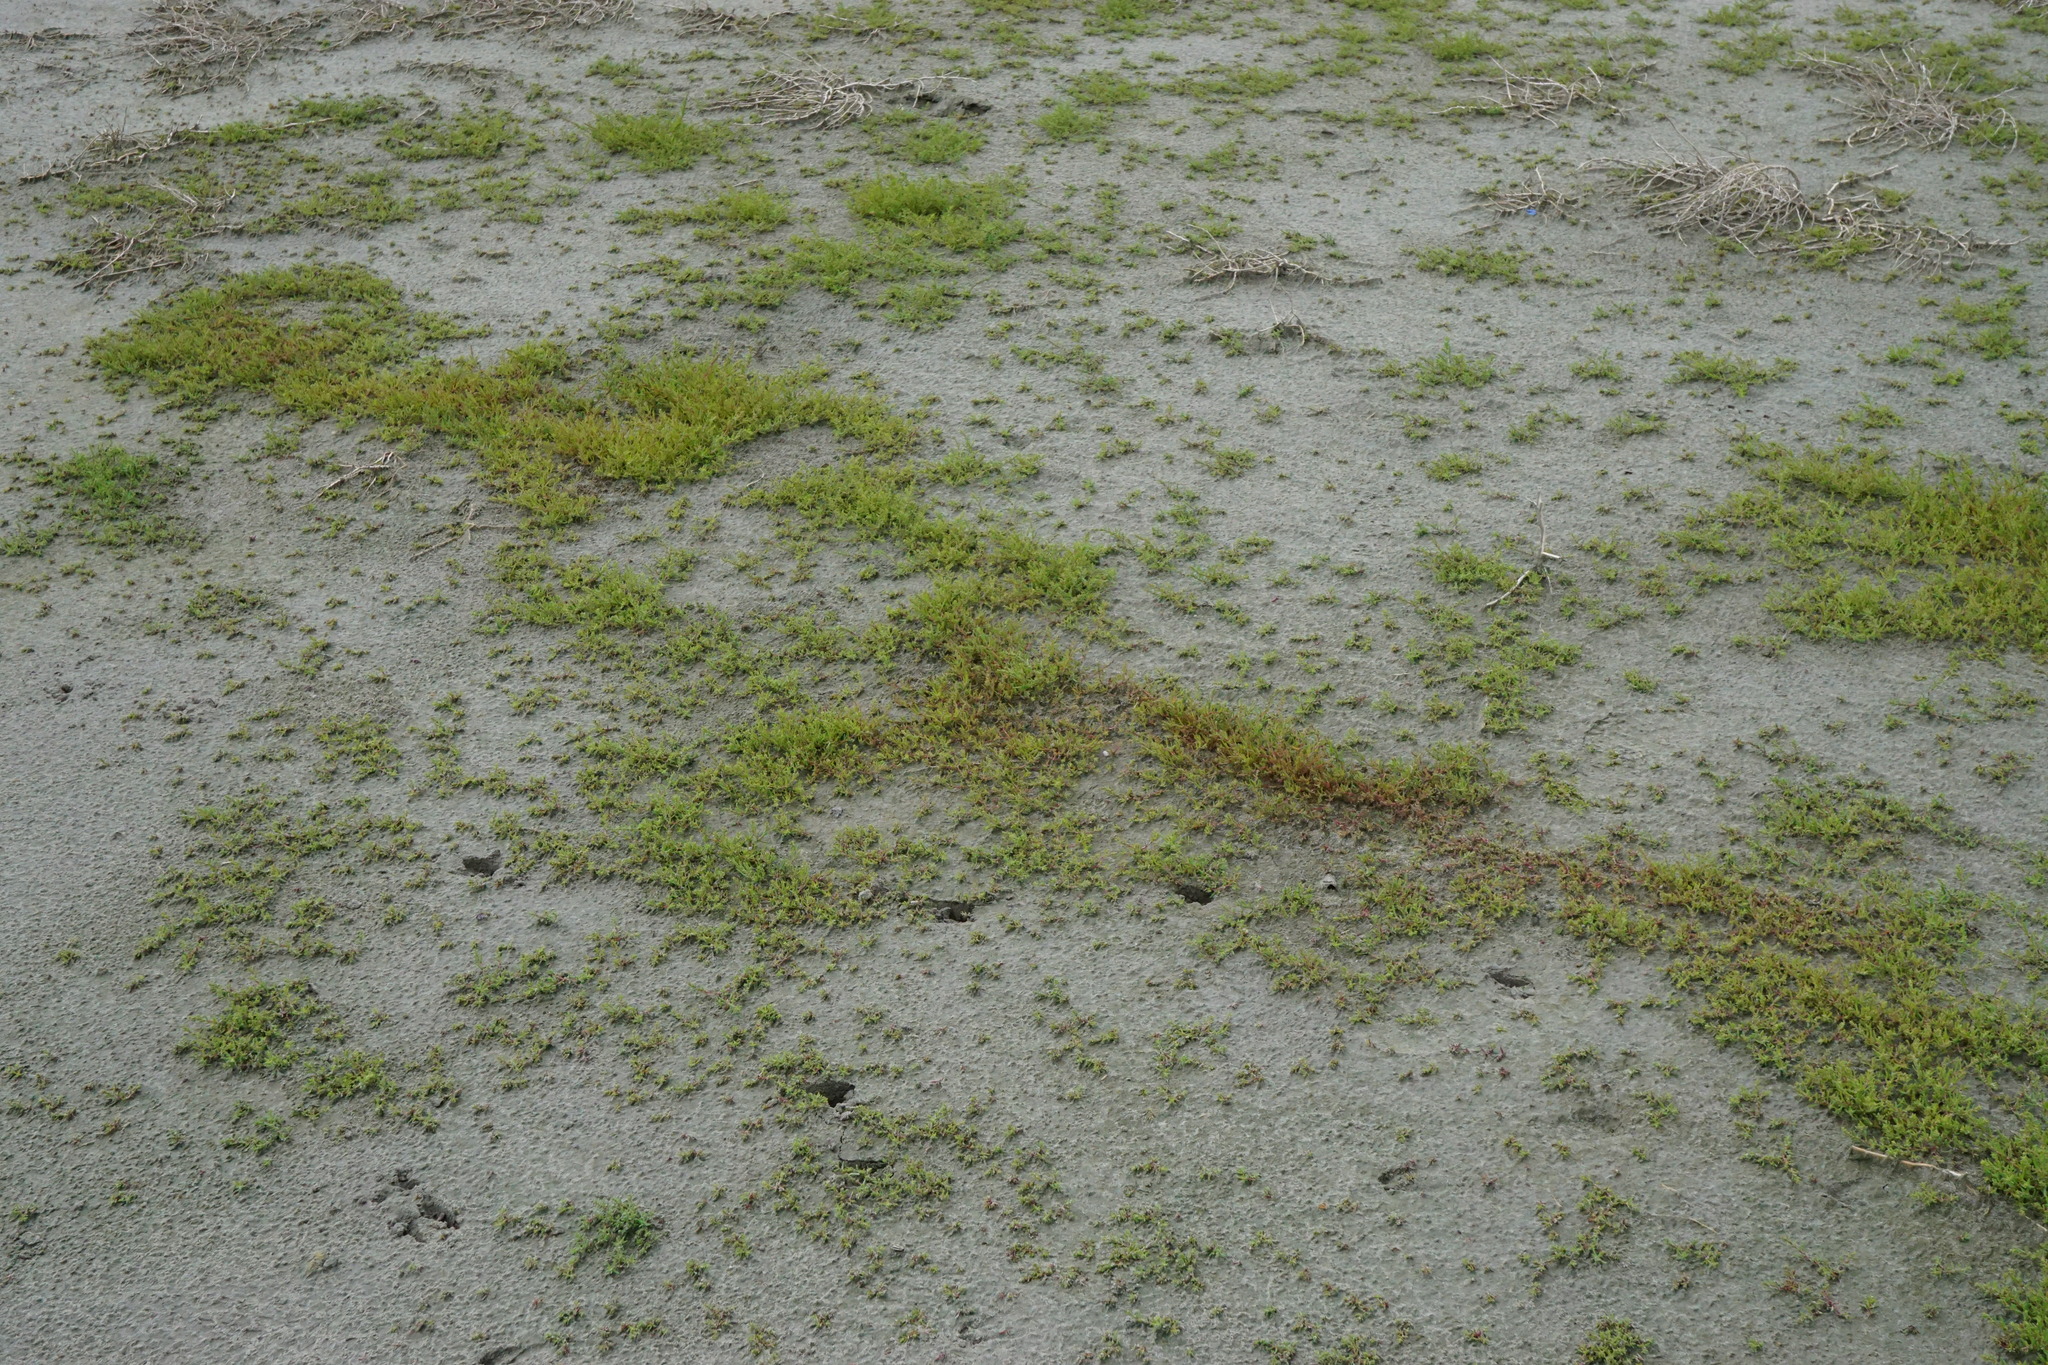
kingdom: Plantae
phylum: Tracheophyta
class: Magnoliopsida
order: Caryophyllales
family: Amaranthaceae
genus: Suaeda
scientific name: Suaeda pannonica
